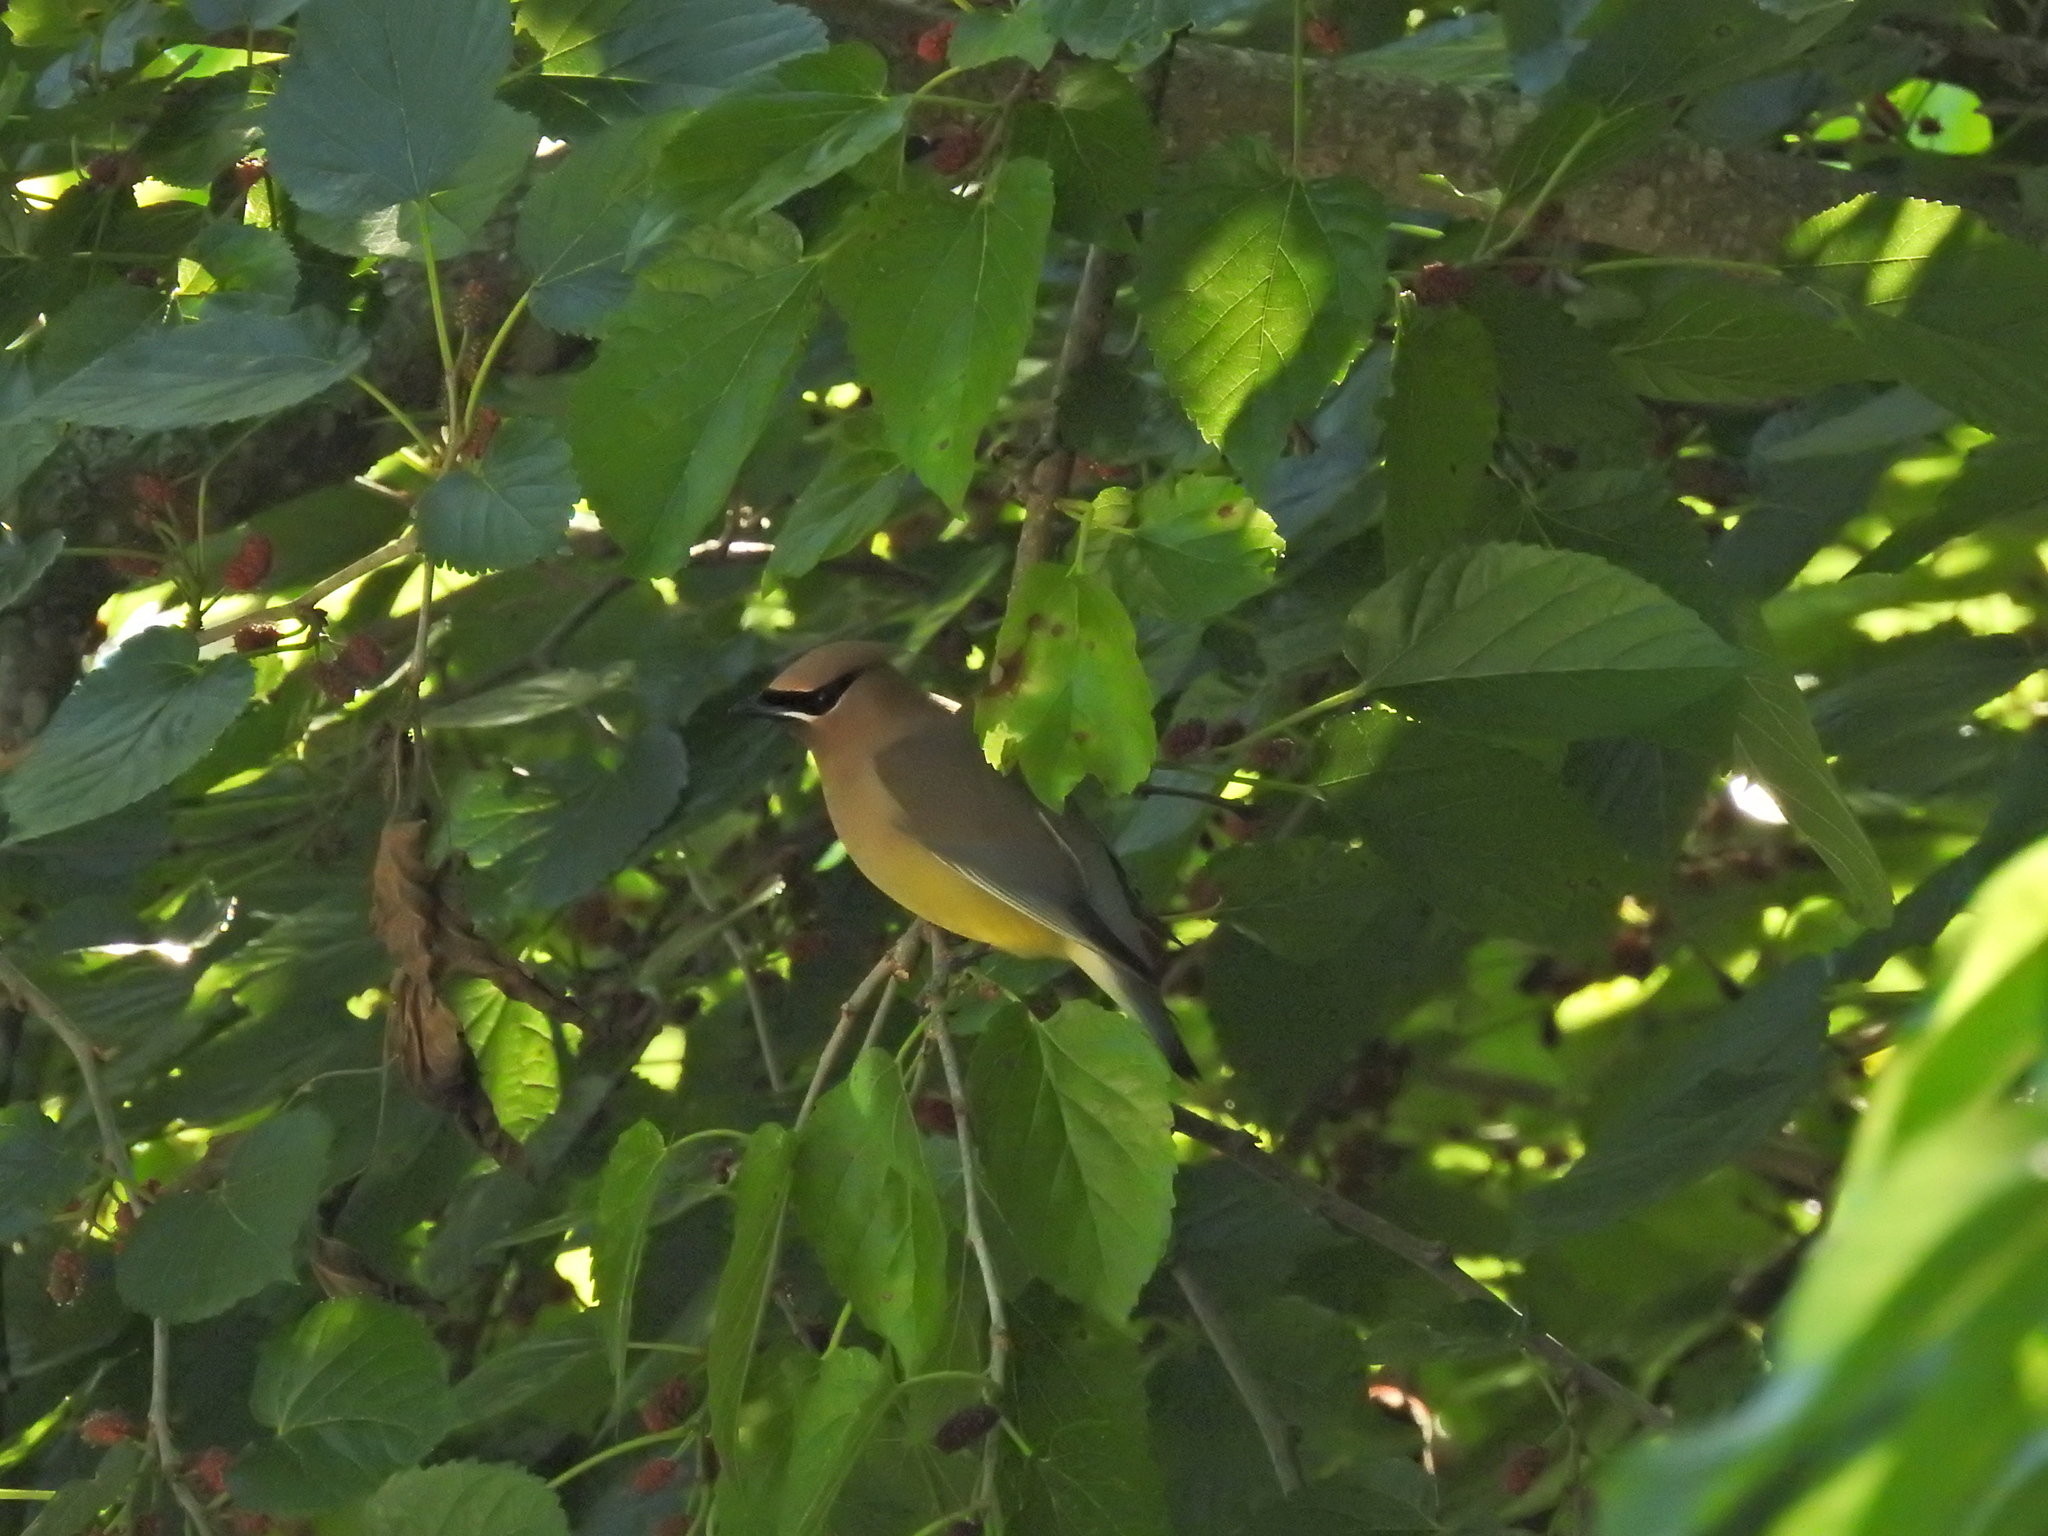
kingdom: Animalia
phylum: Chordata
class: Aves
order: Passeriformes
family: Bombycillidae
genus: Bombycilla
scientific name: Bombycilla cedrorum
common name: Cedar waxwing
